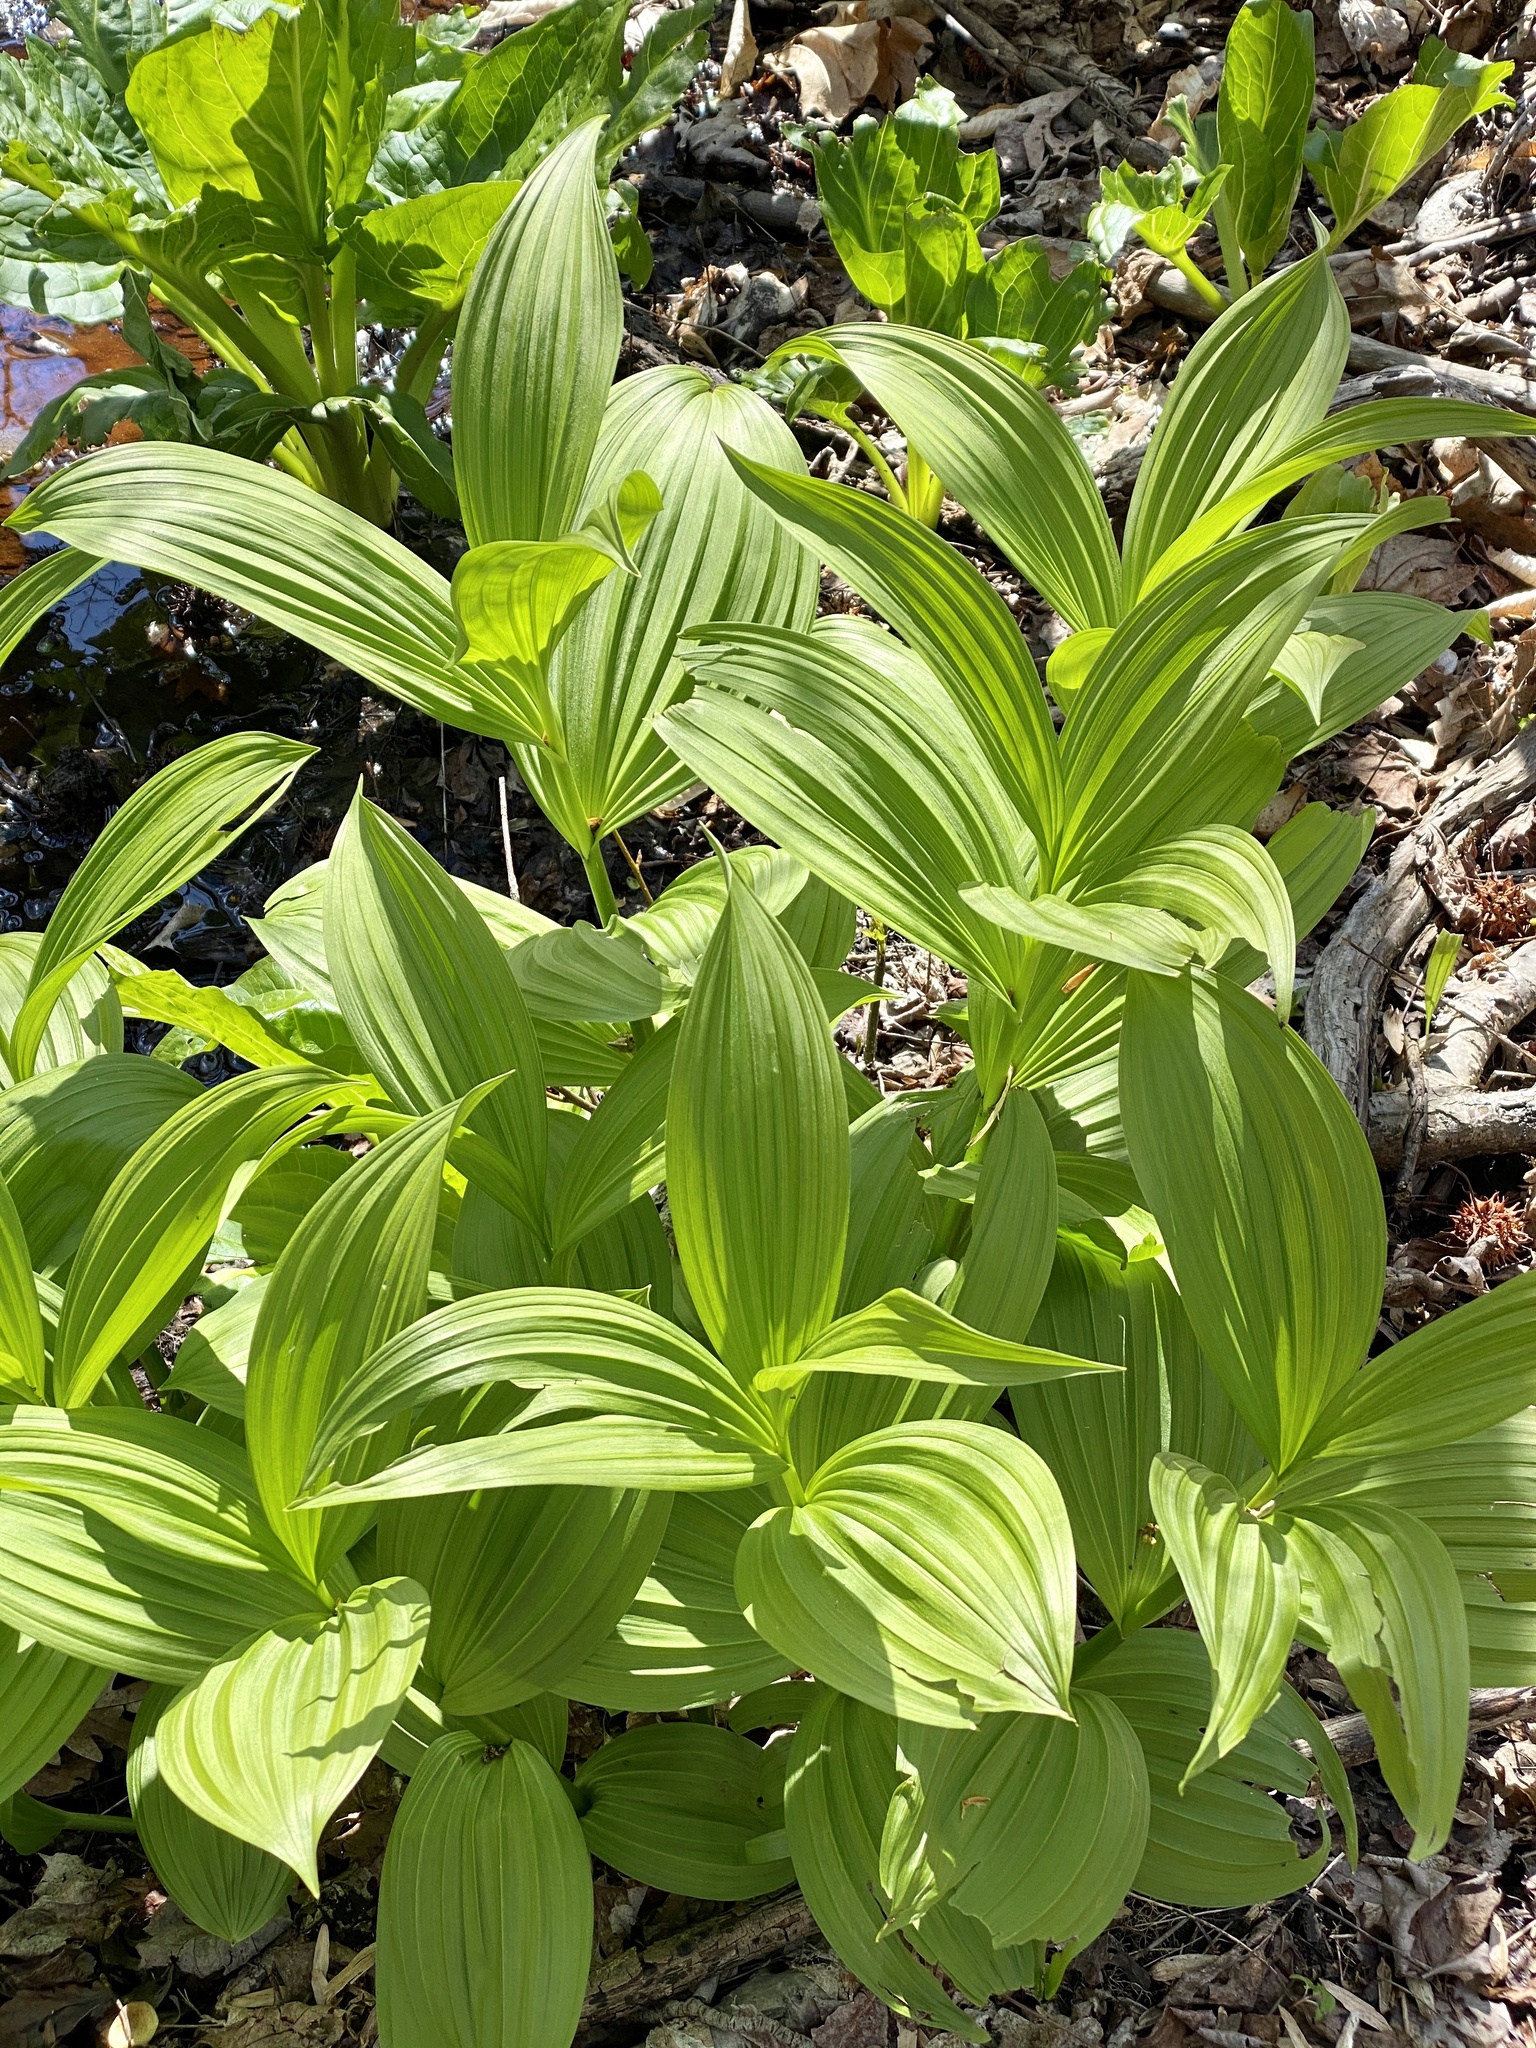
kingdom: Plantae
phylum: Tracheophyta
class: Liliopsida
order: Liliales
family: Melanthiaceae
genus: Veratrum
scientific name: Veratrum viride
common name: American false hellebore
